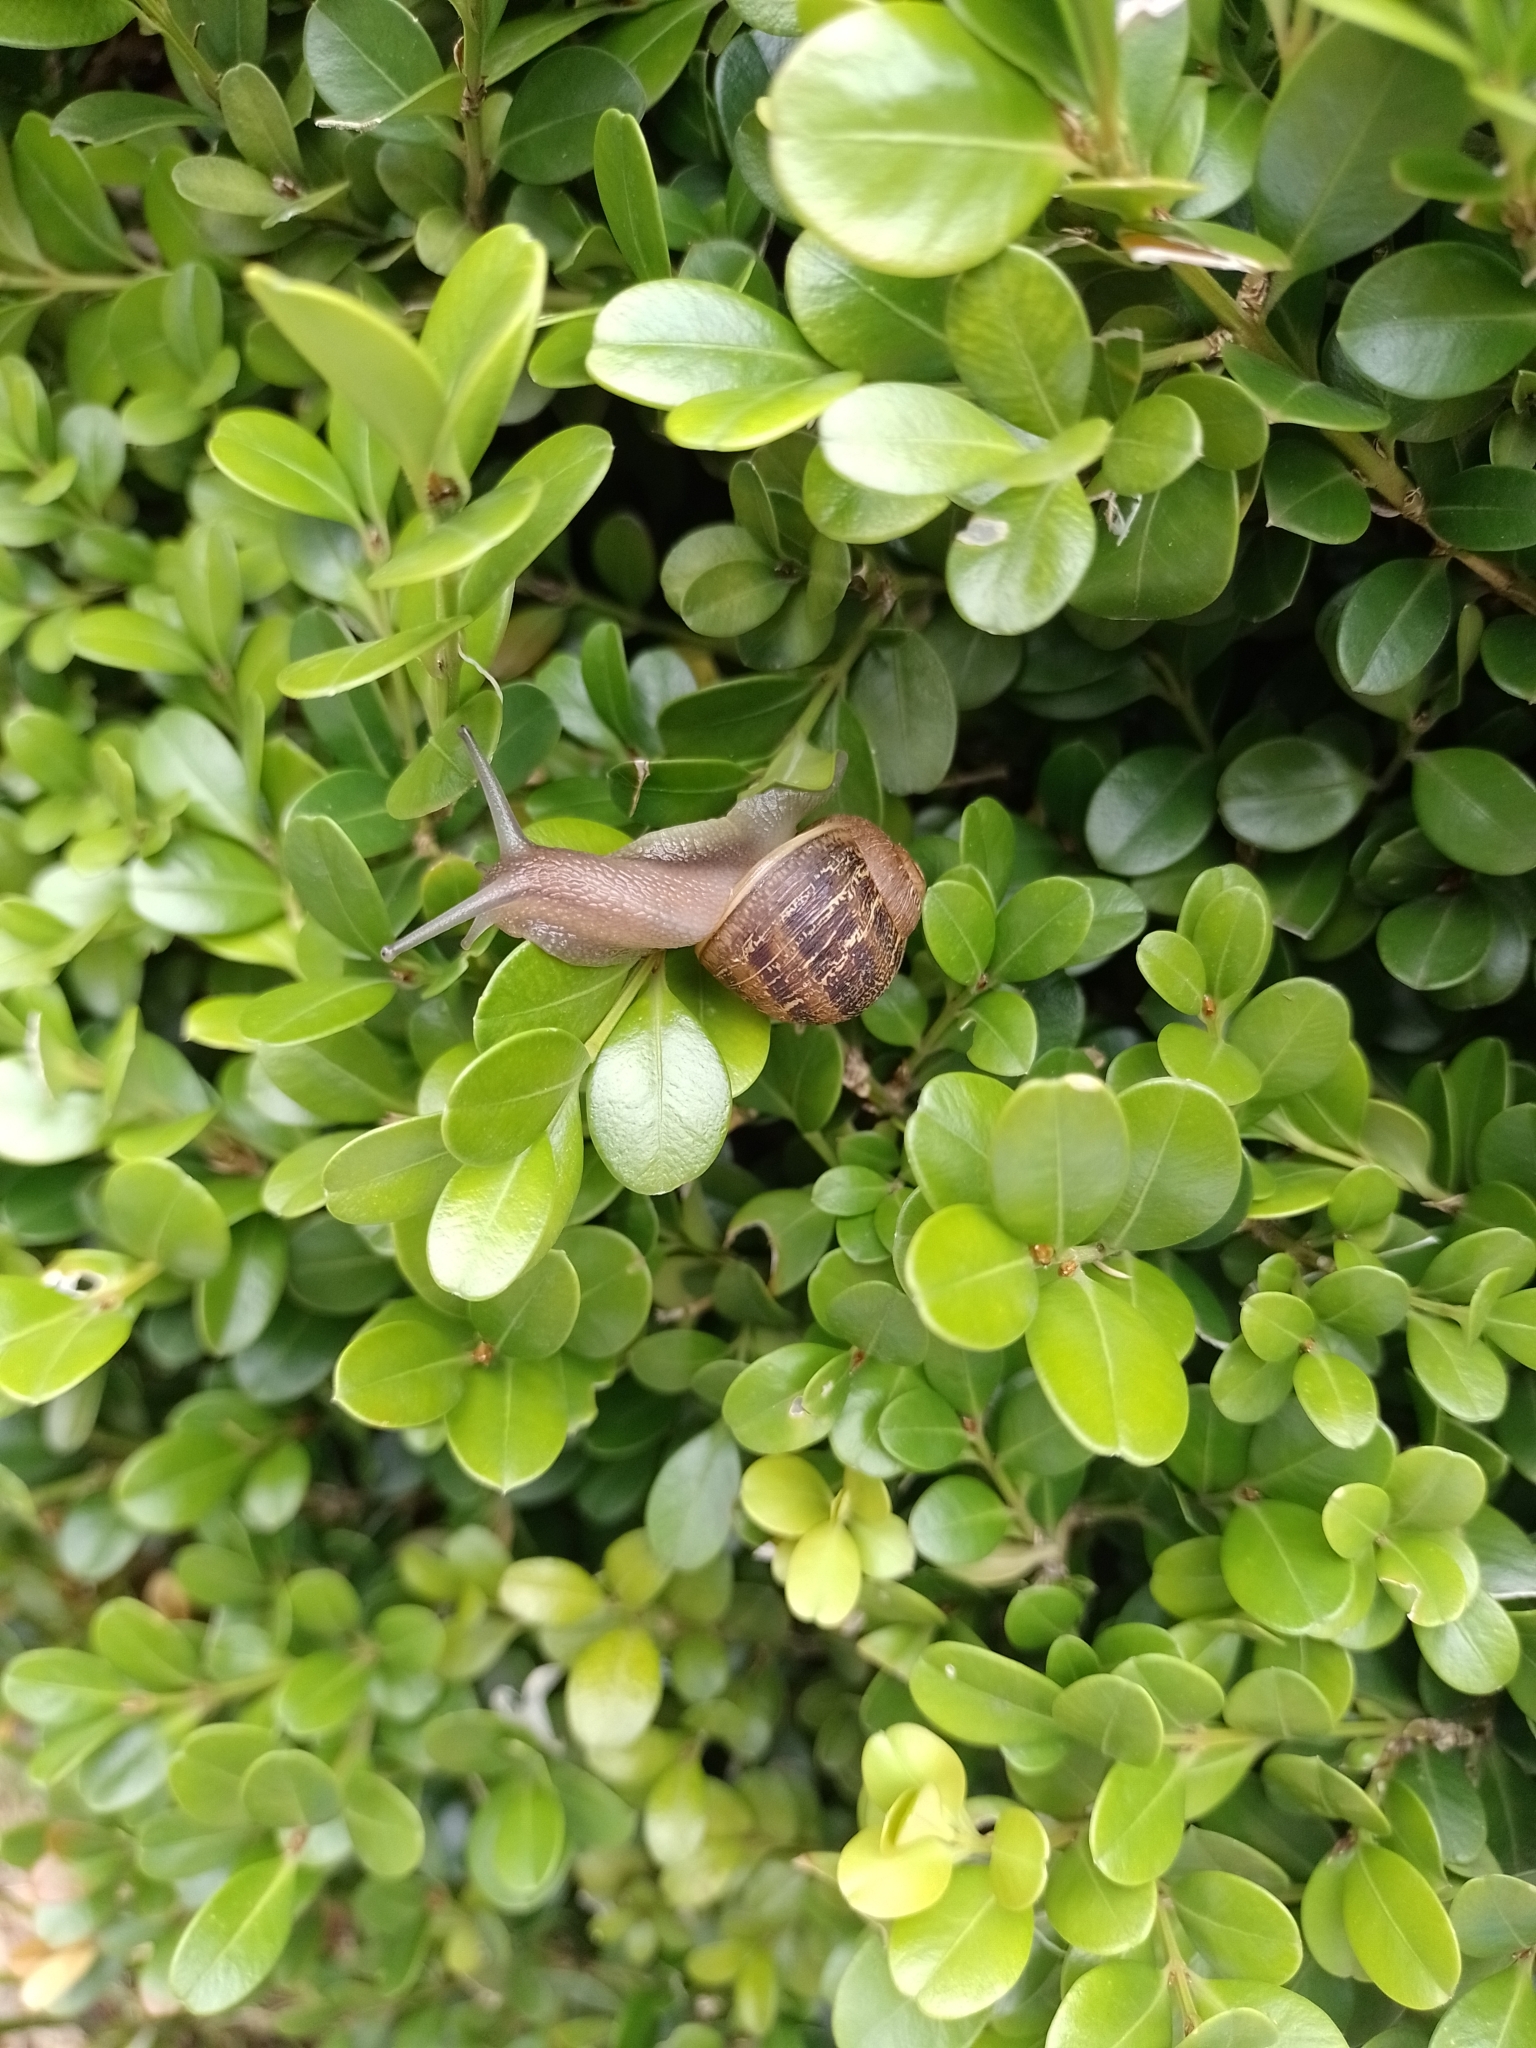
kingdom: Animalia
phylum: Mollusca
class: Gastropoda
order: Stylommatophora
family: Helicidae
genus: Cornu
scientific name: Cornu aspersum
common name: Brown garden snail
